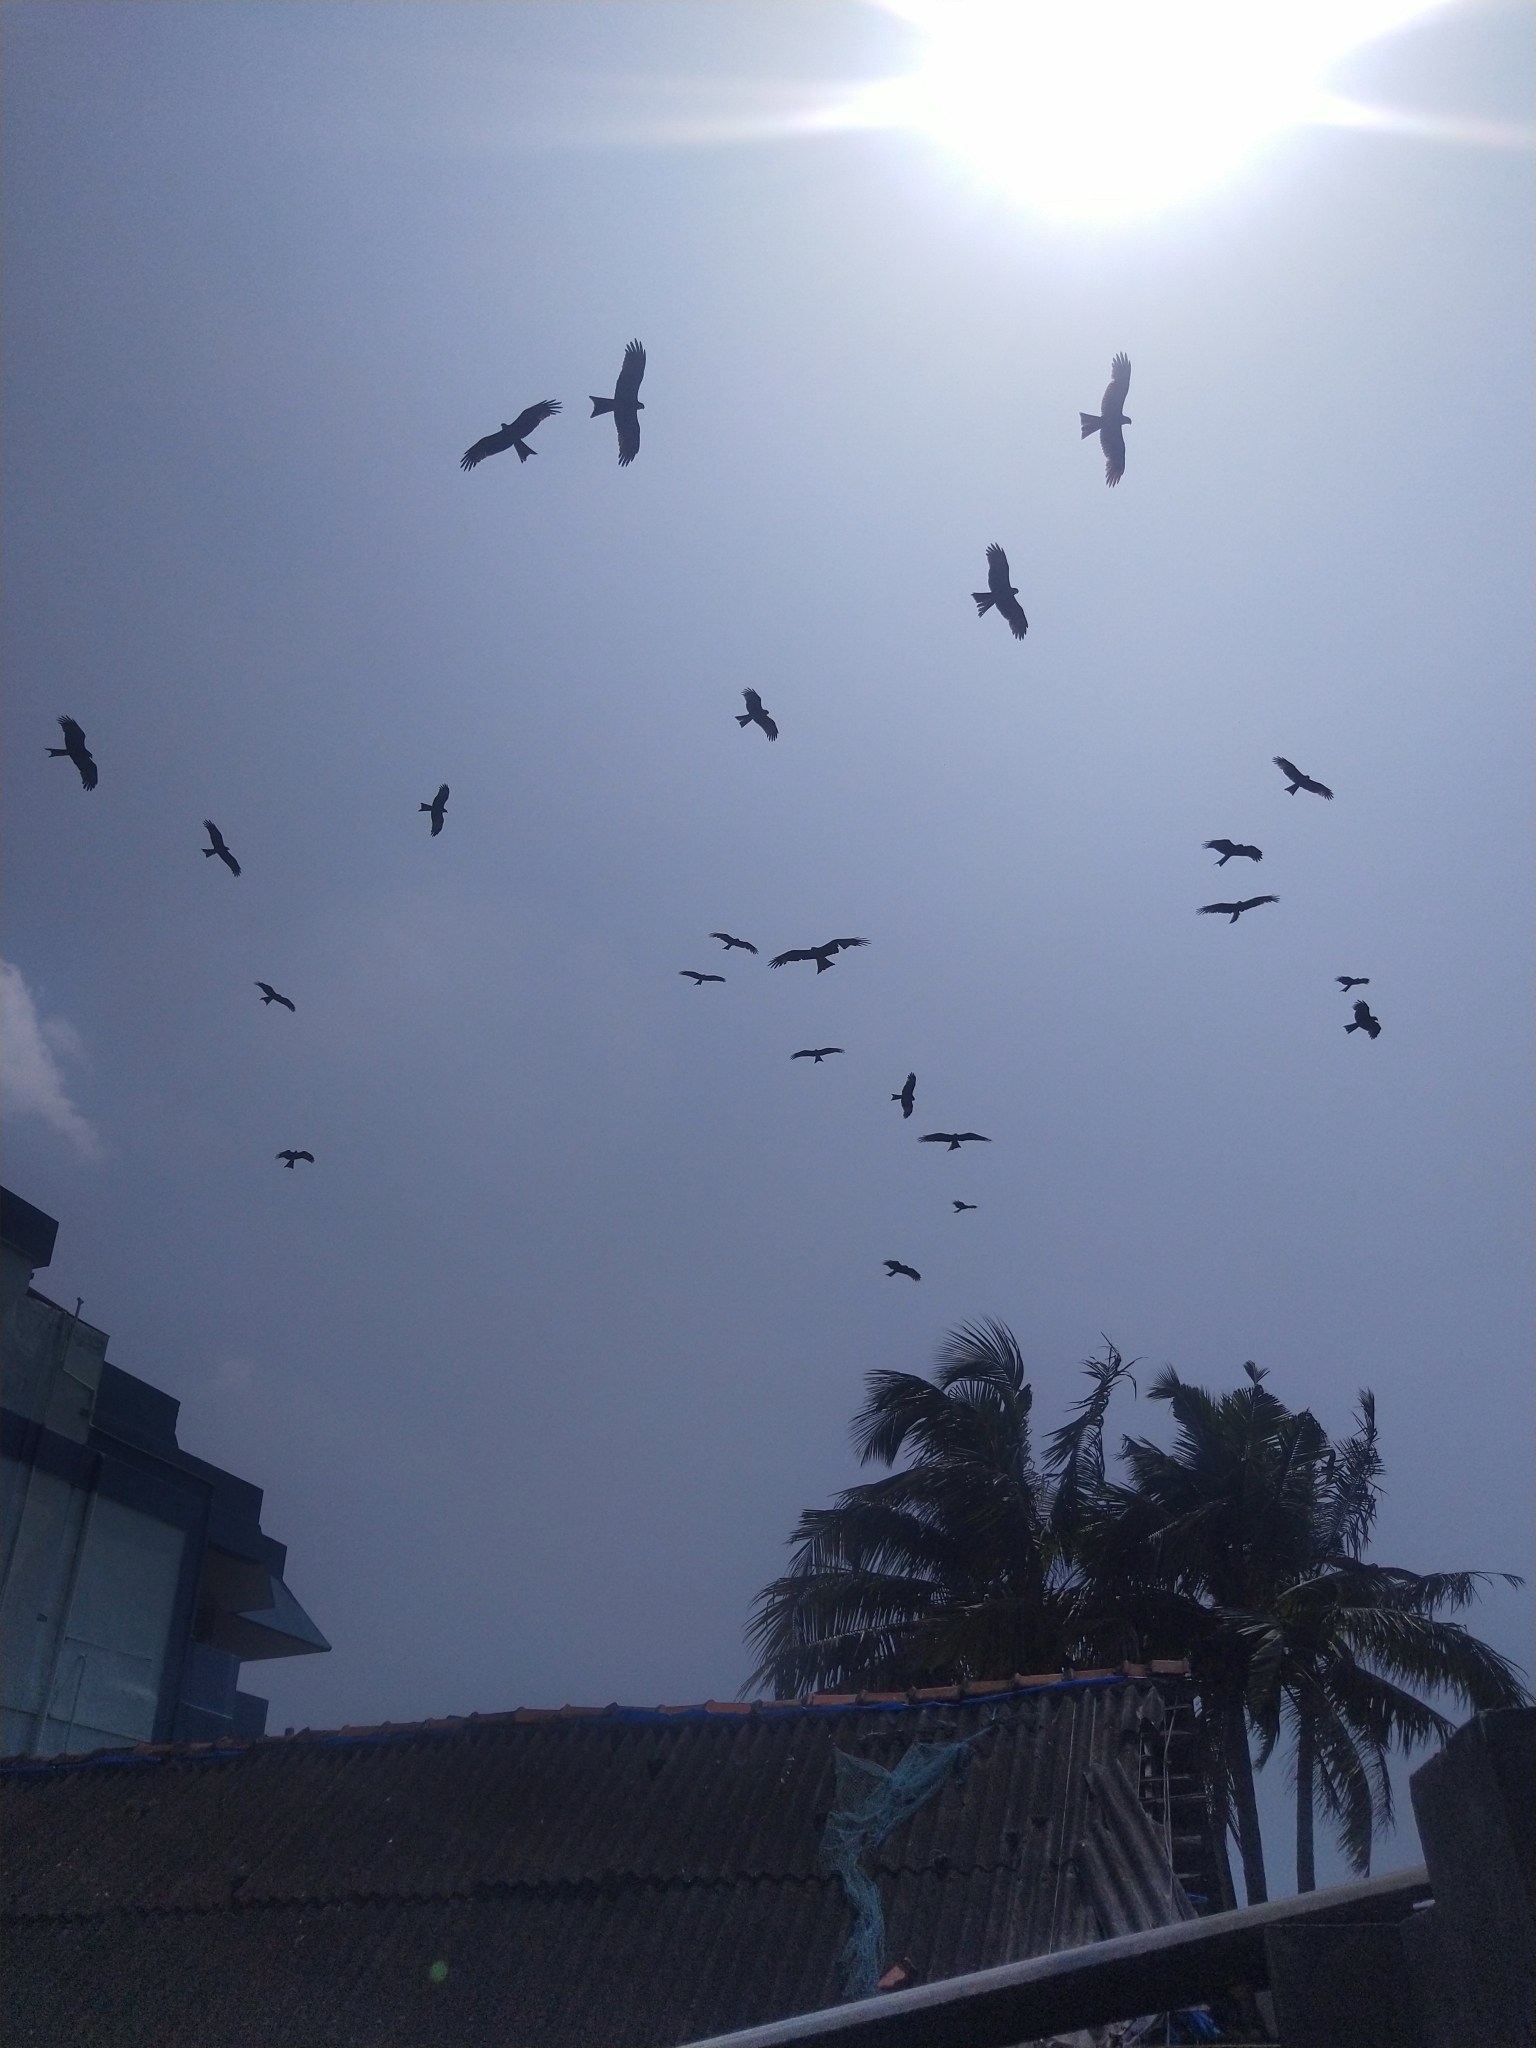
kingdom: Animalia
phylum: Chordata
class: Aves
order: Accipitriformes
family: Accipitridae
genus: Milvus
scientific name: Milvus migrans
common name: Black kite
